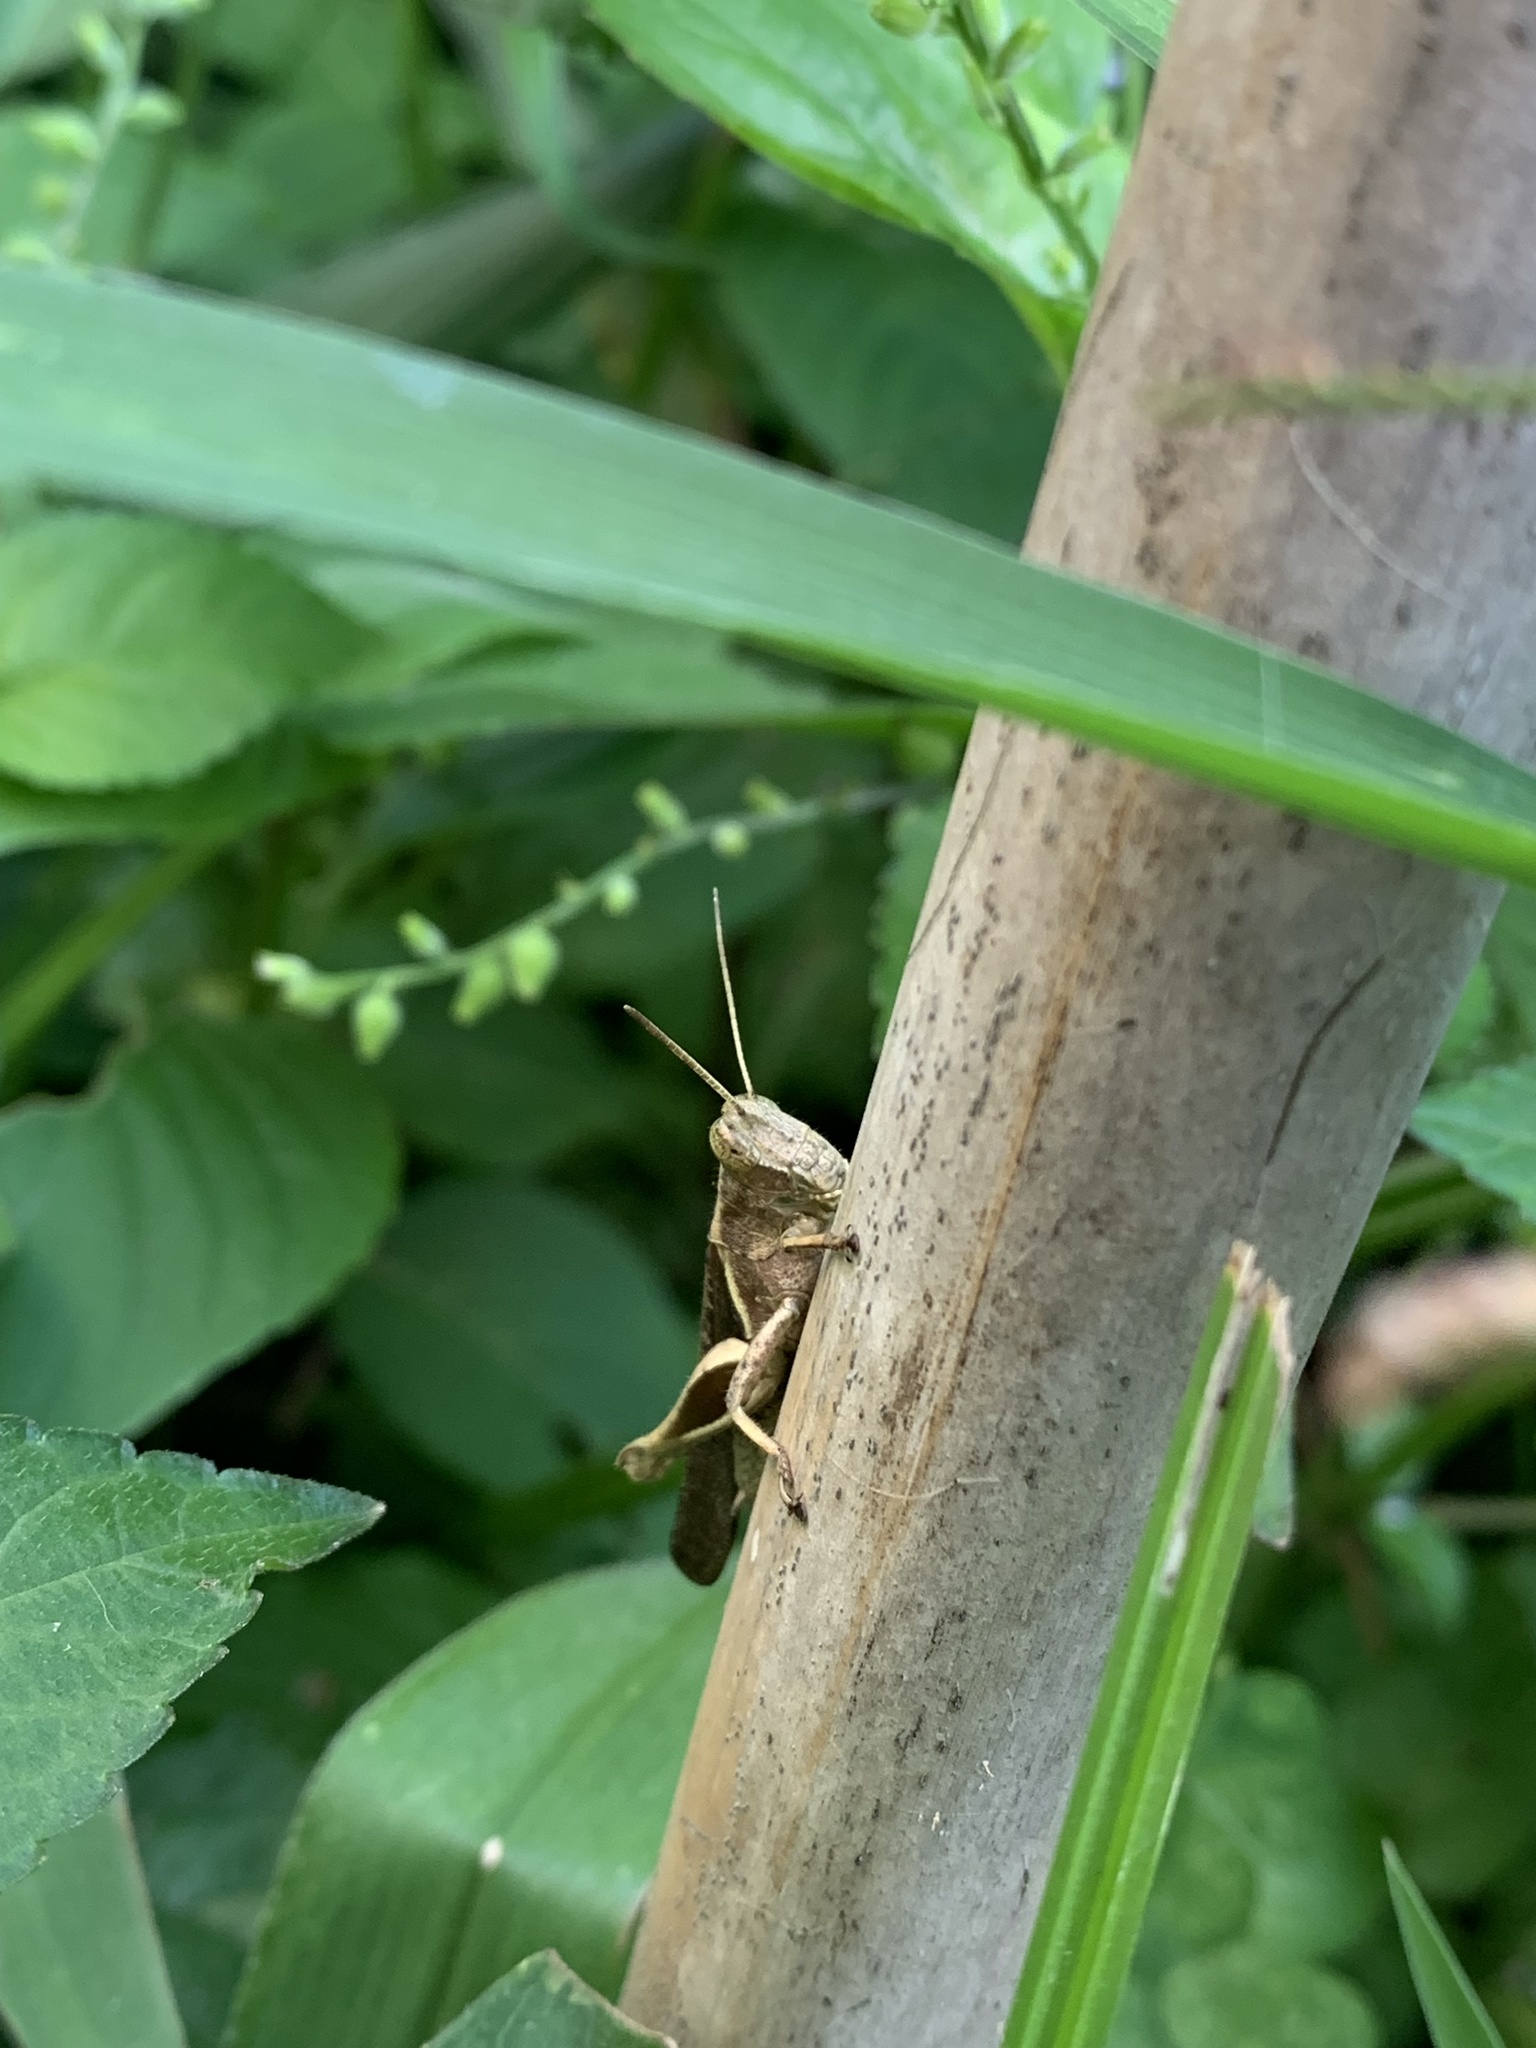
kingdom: Animalia
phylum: Arthropoda
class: Insecta
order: Orthoptera
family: Acrididae
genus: Abracris
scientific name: Abracris flavolineata
